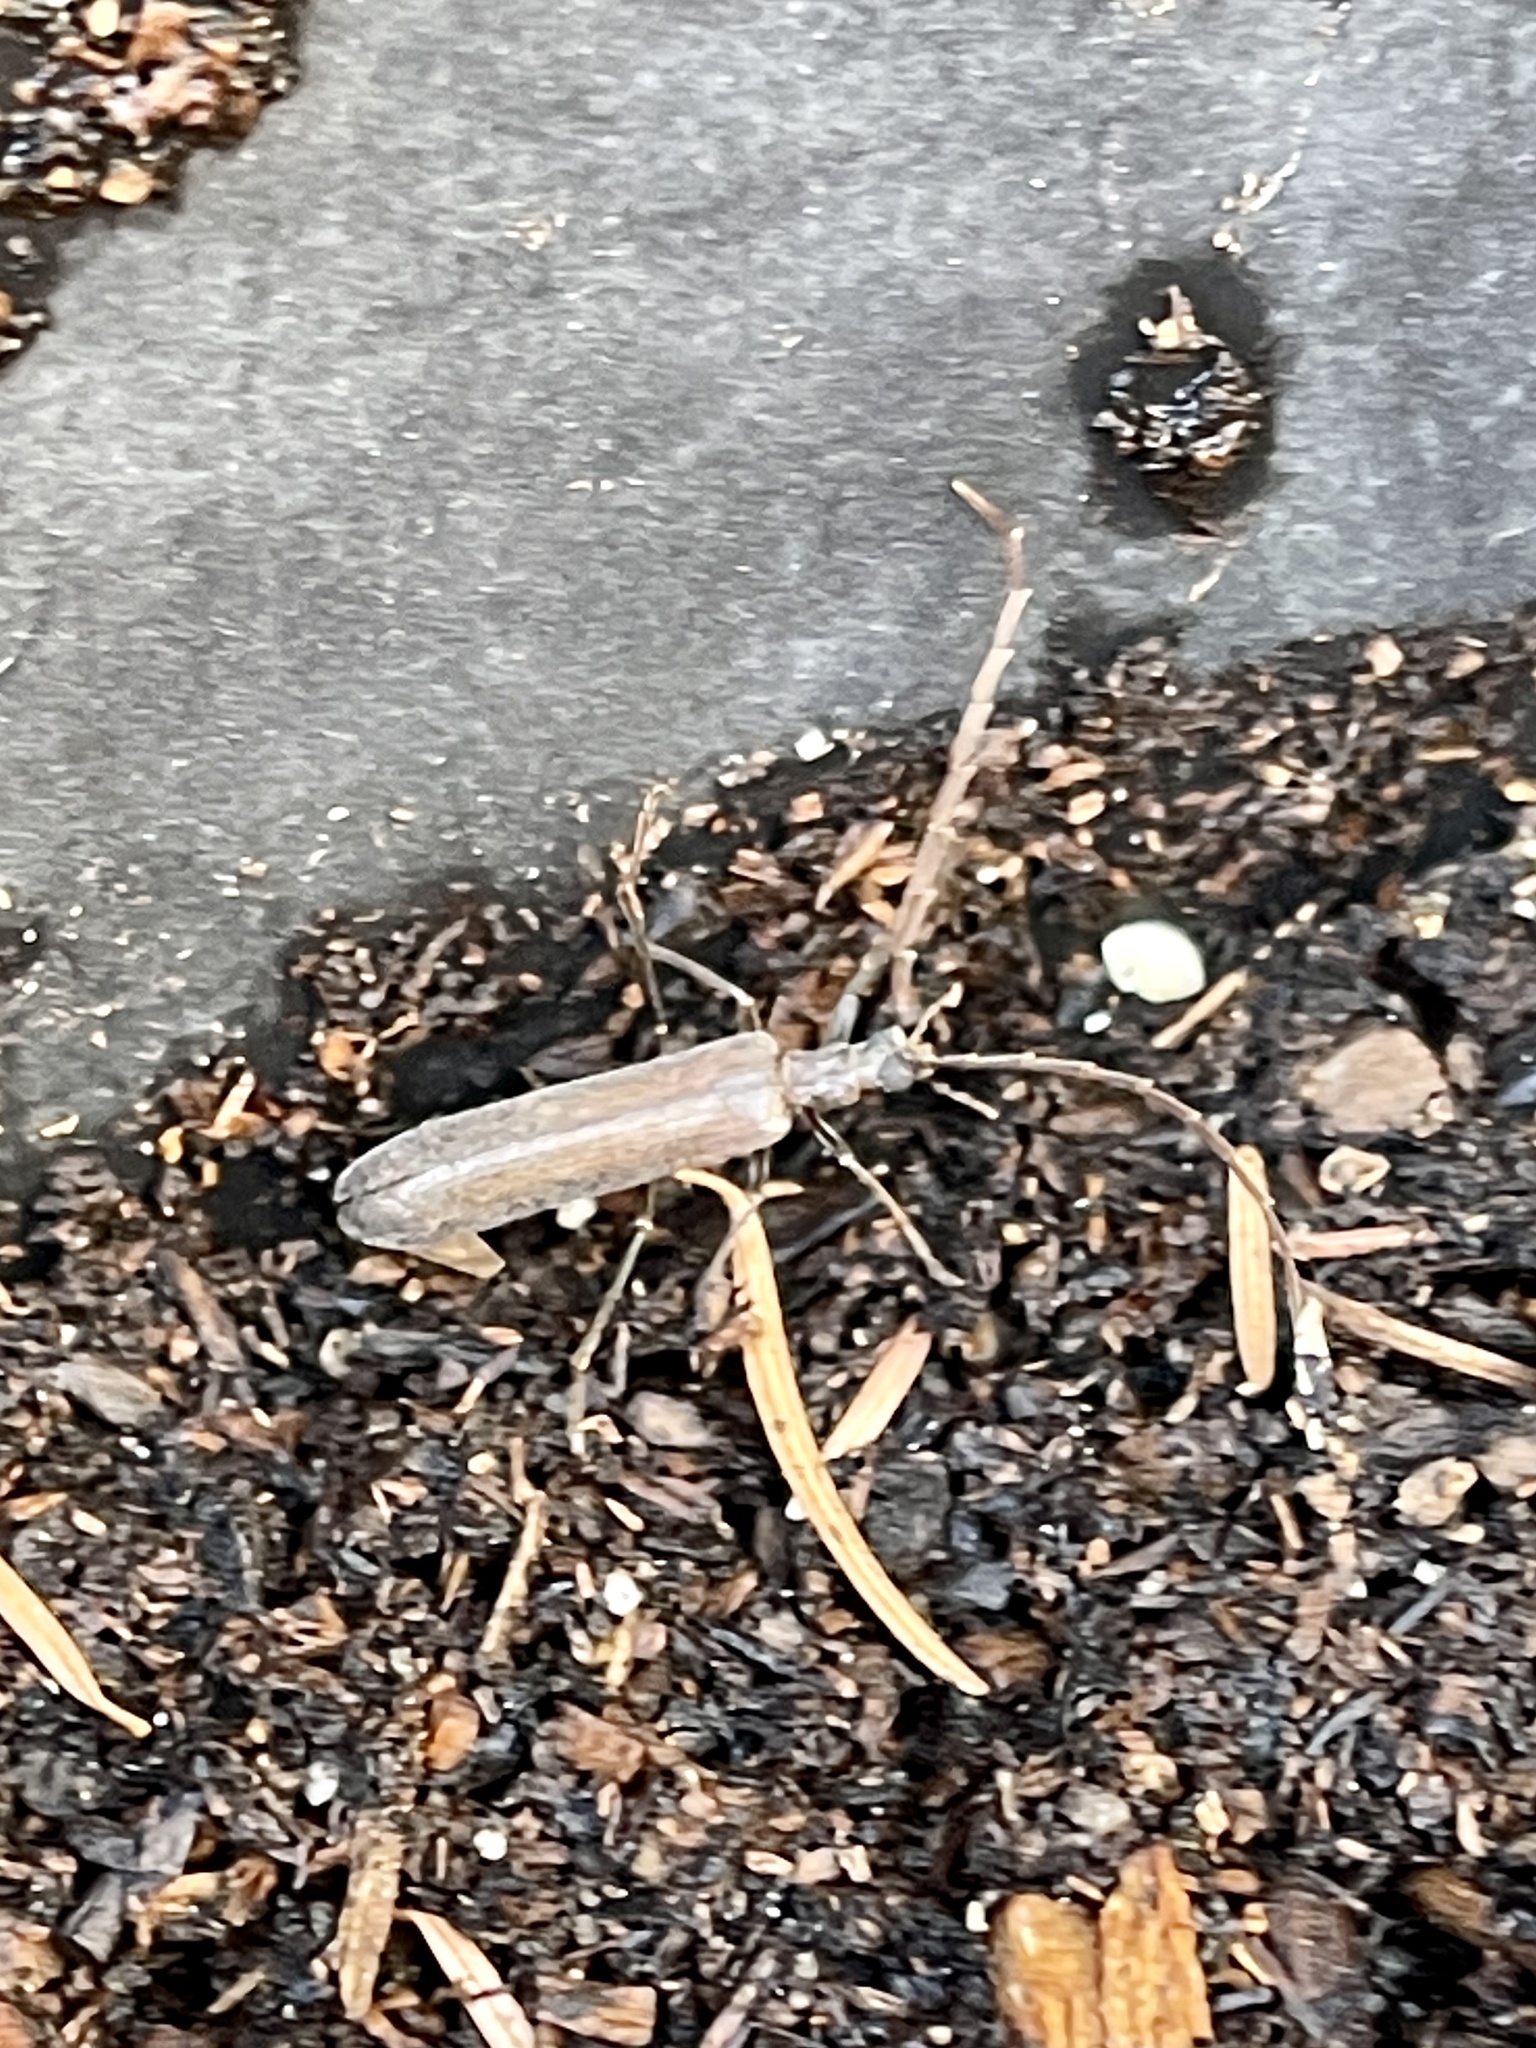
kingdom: Animalia
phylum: Arthropoda
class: Insecta
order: Coleoptera
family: Oedemeridae
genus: Calopus
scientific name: Calopus angustus
